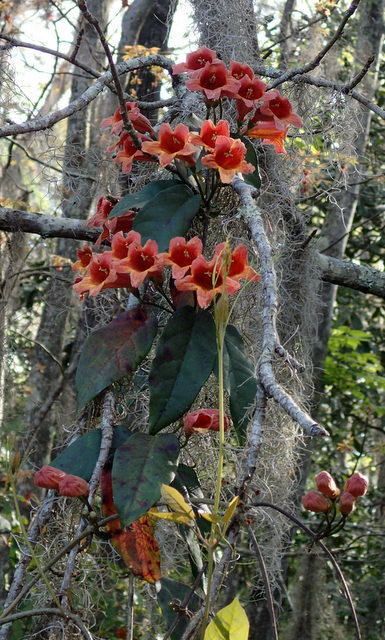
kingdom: Plantae
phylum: Tracheophyta
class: Magnoliopsida
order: Lamiales
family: Bignoniaceae
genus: Bignonia
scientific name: Bignonia capreolata
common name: Crossvine
